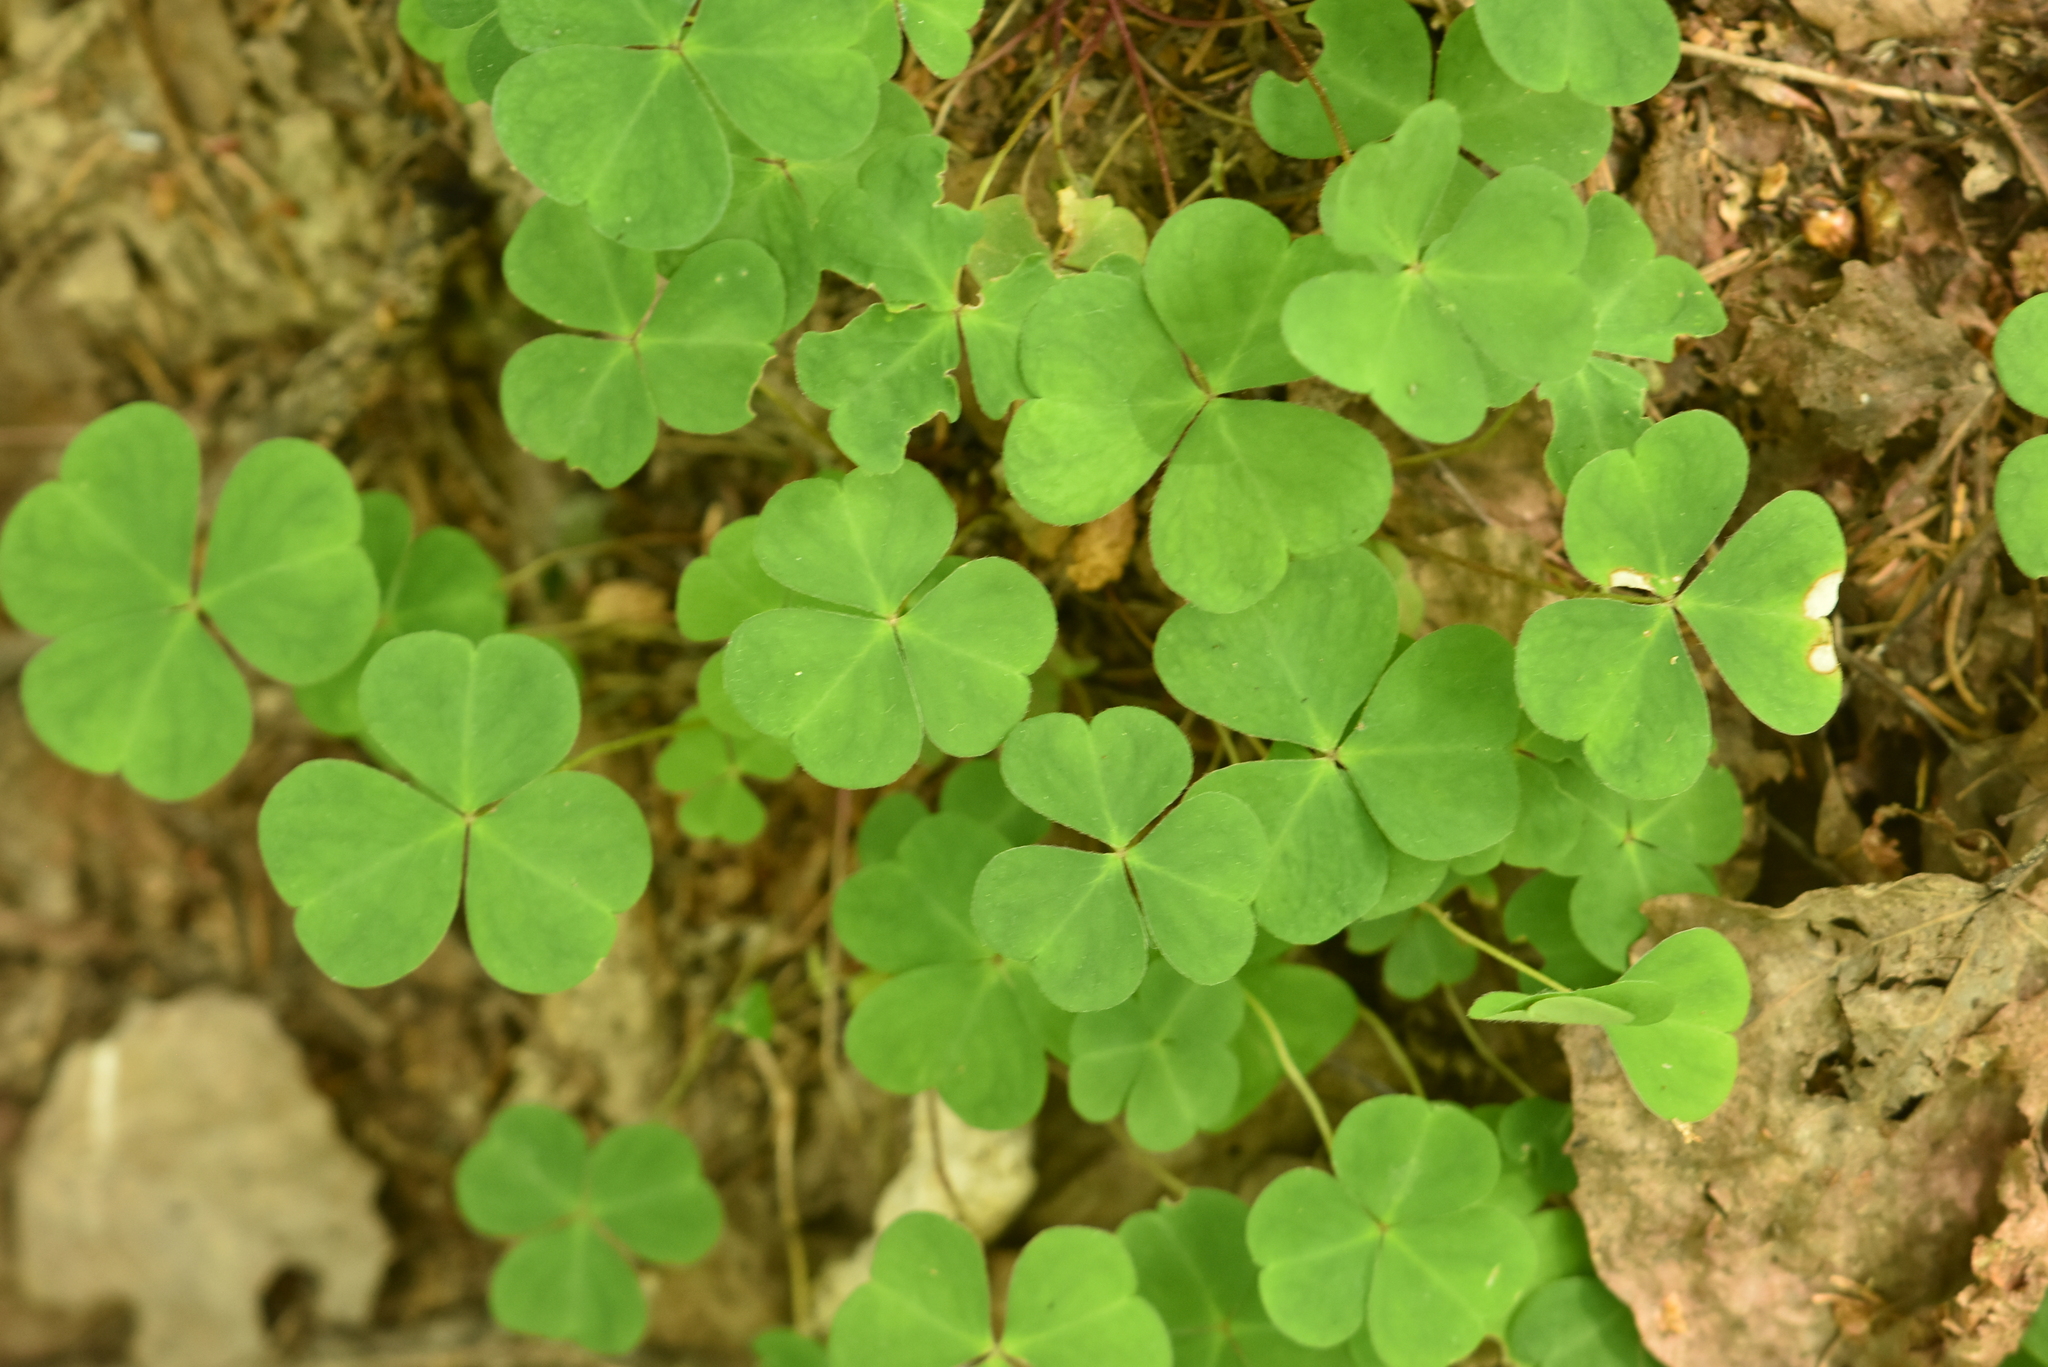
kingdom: Plantae
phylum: Tracheophyta
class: Magnoliopsida
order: Oxalidales
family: Oxalidaceae
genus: Oxalis
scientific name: Oxalis acetosella
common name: Wood-sorrel
